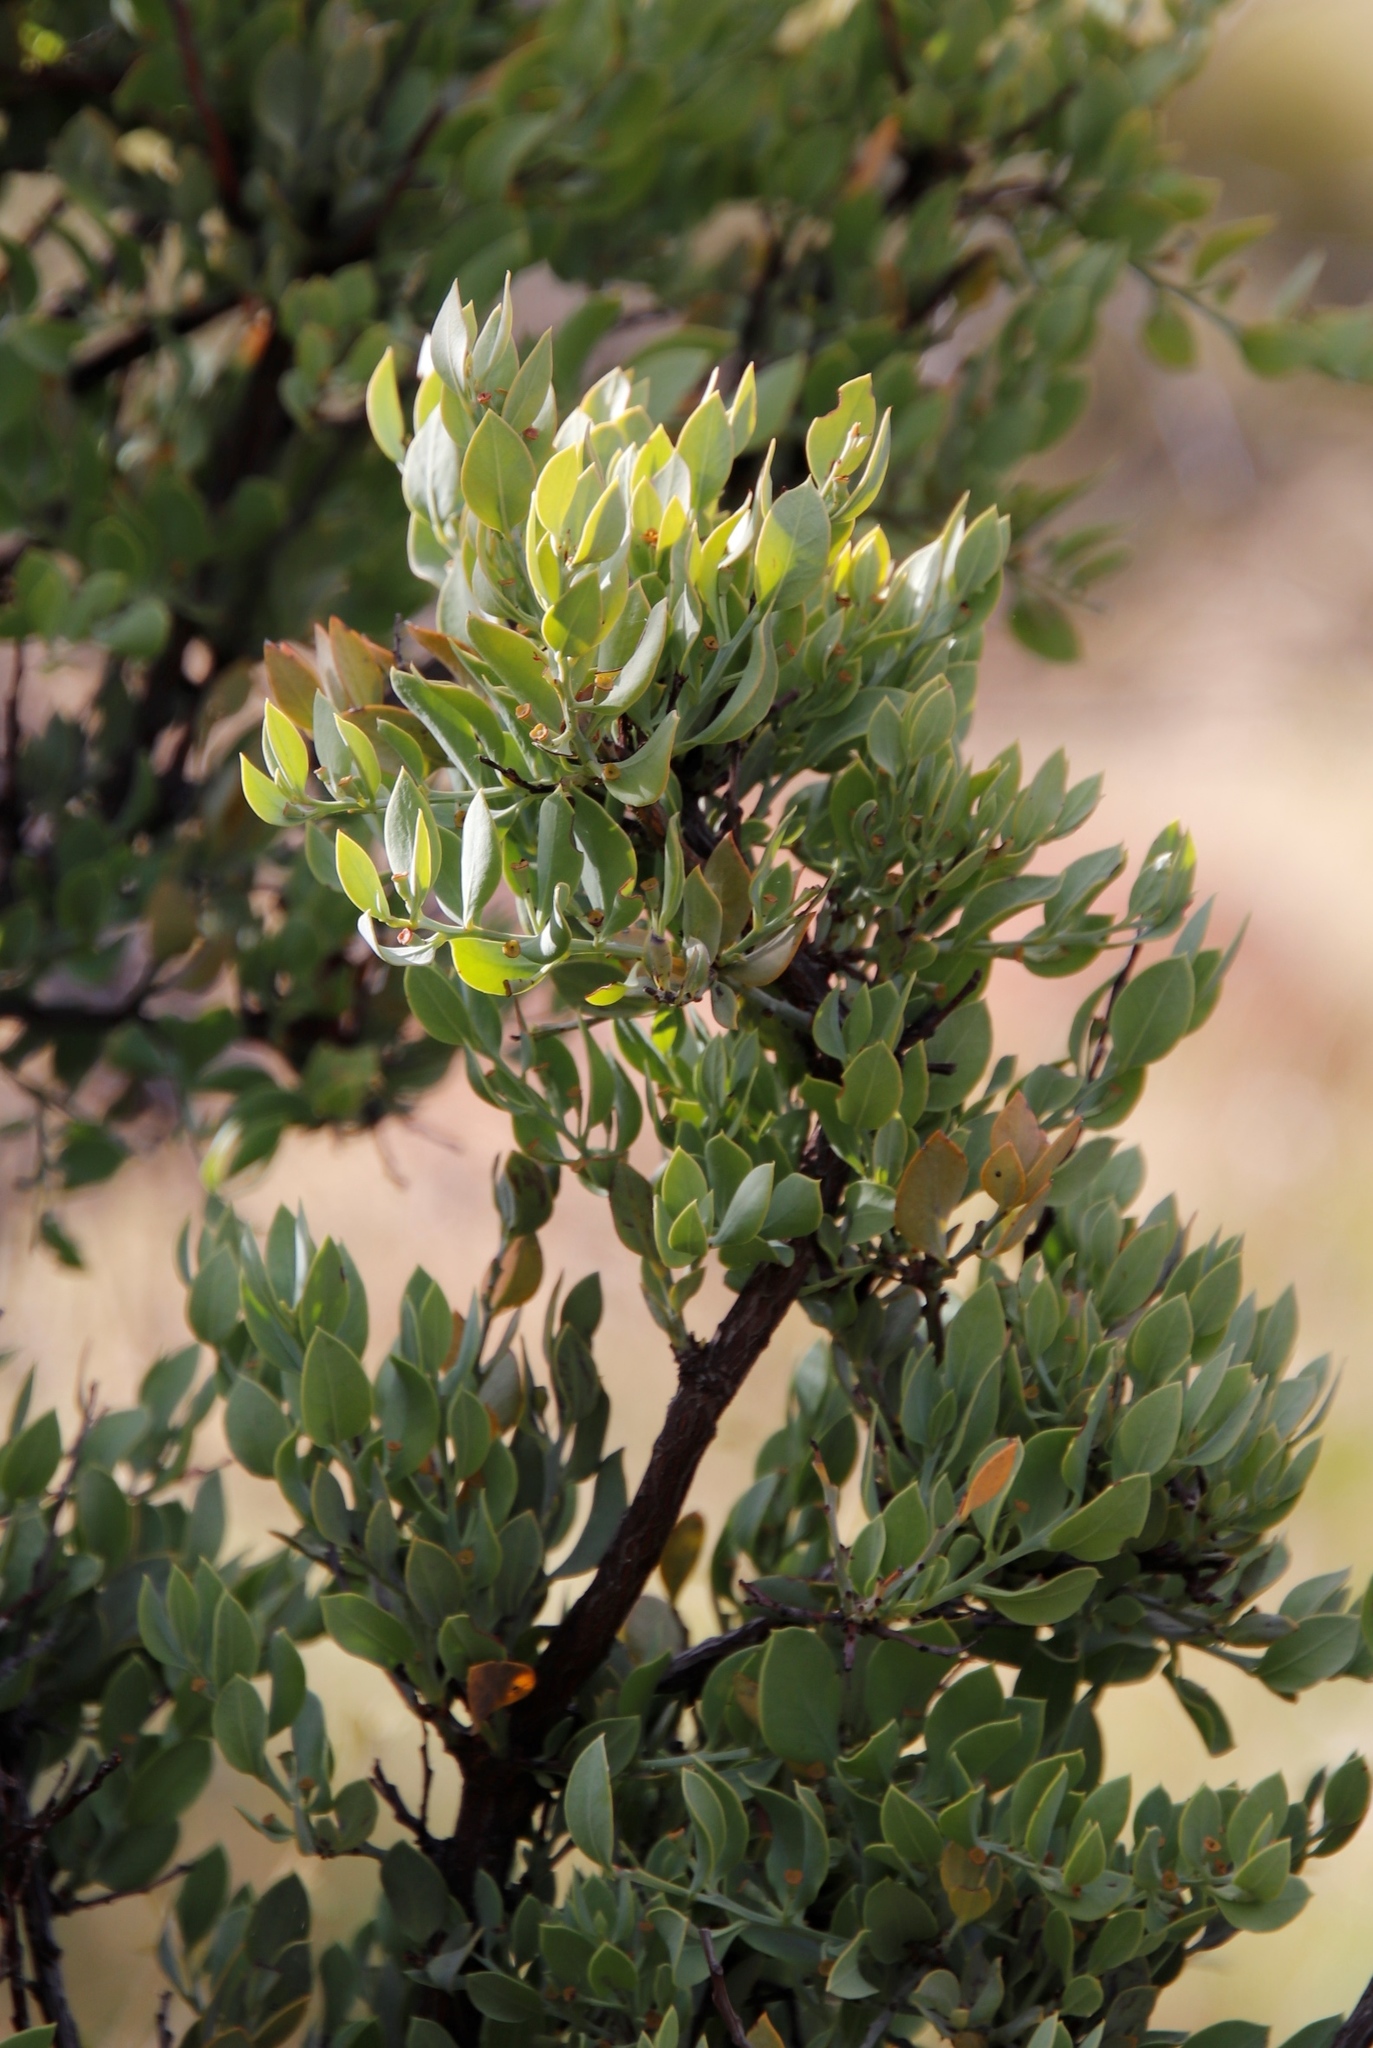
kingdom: Plantae
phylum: Tracheophyta
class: Magnoliopsida
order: Santalales
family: Santalaceae
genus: Osyris
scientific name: Osyris lanceolata
